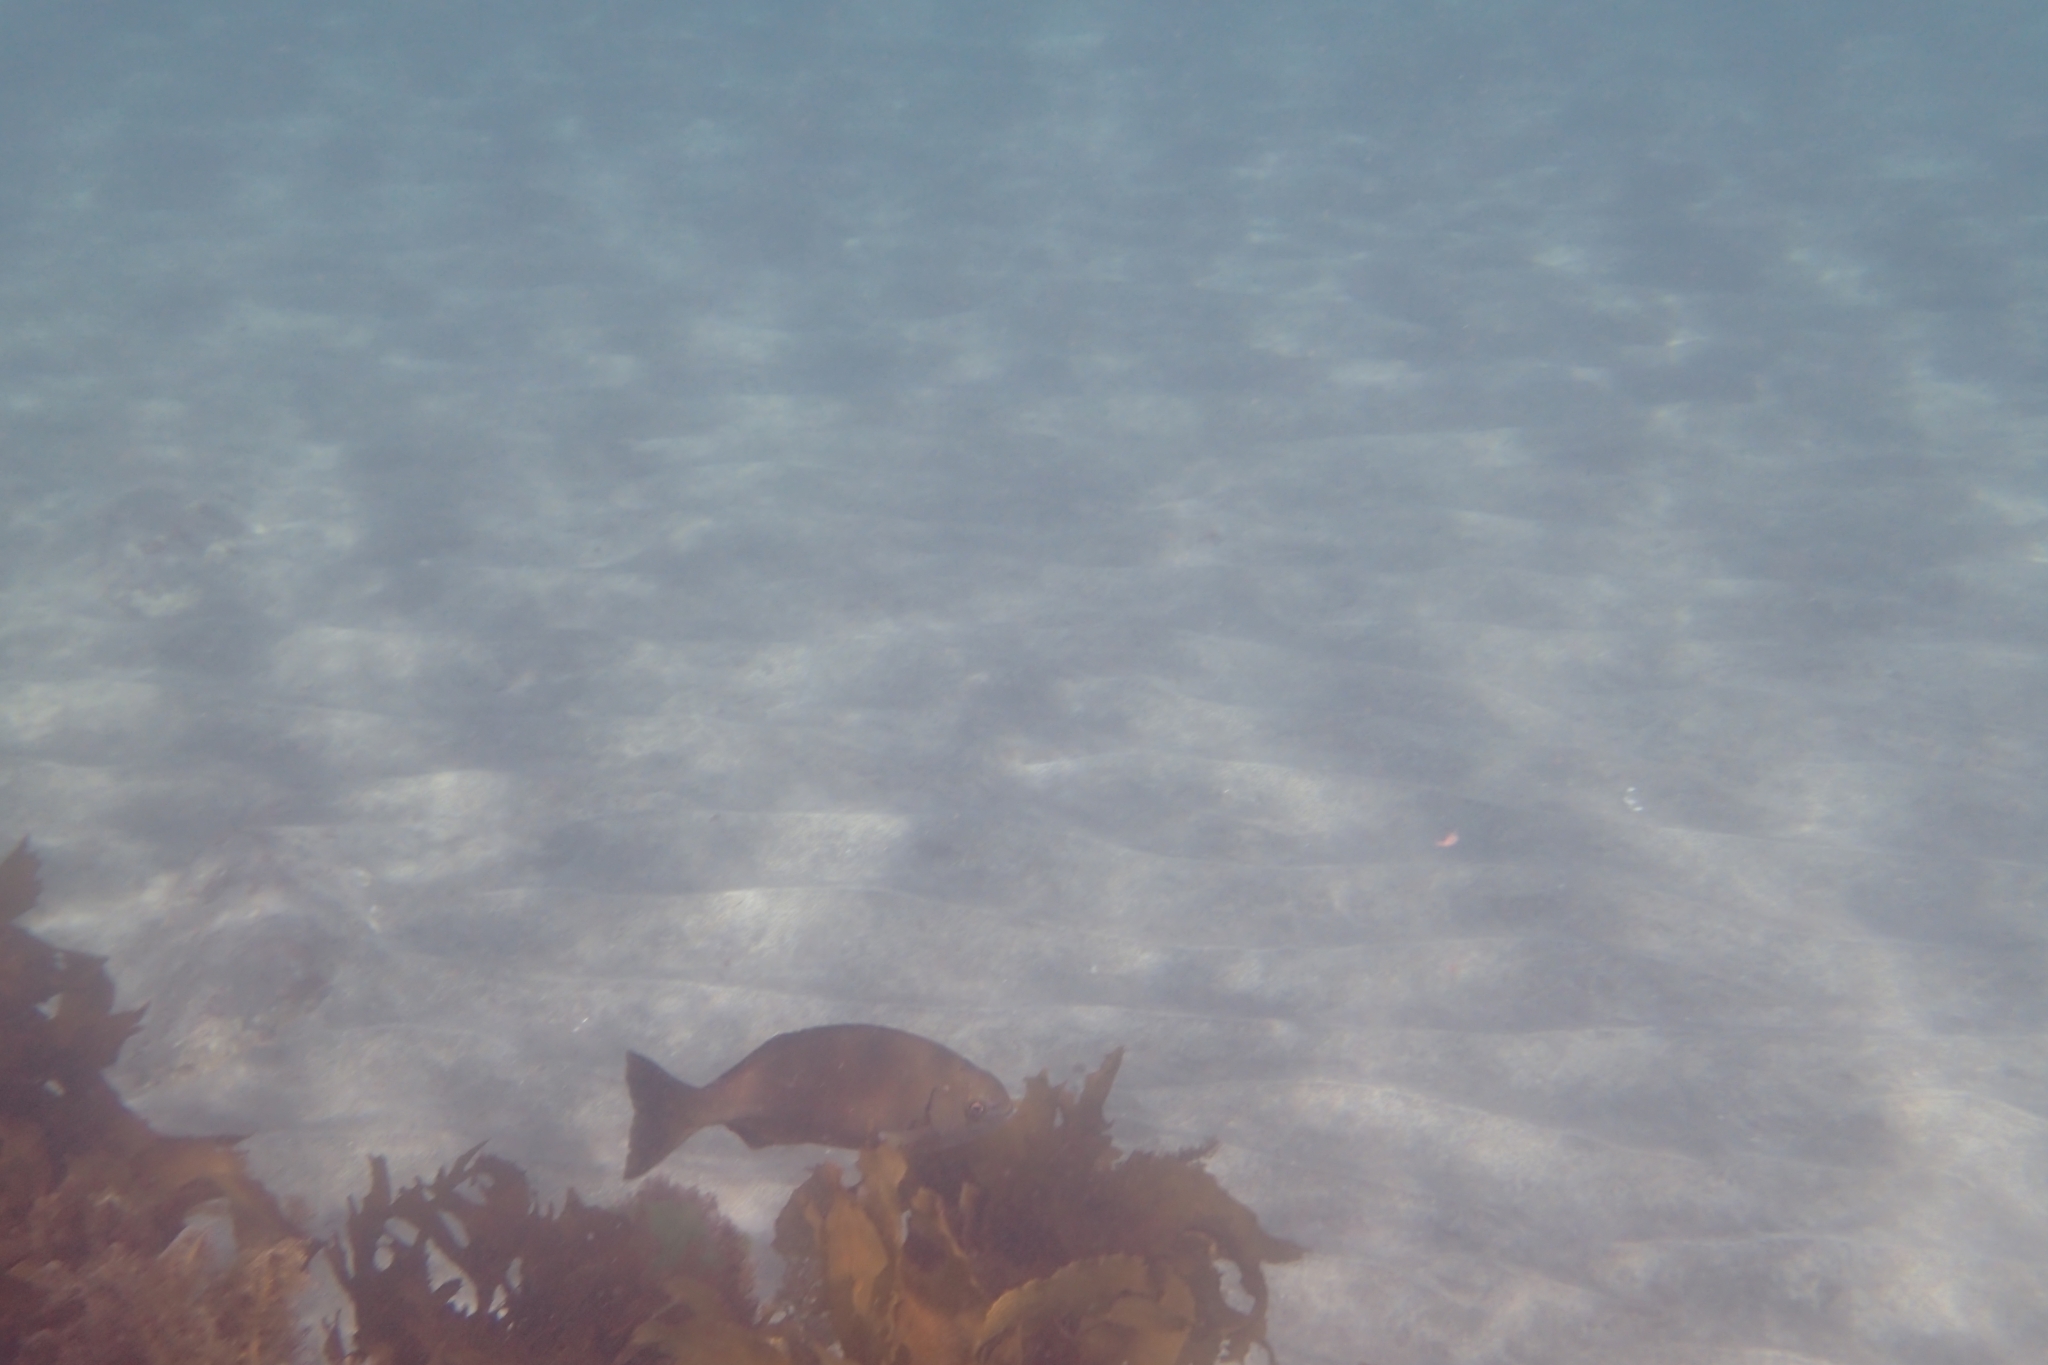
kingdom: Animalia
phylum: Chordata
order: Perciformes
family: Kyphosidae
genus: Kyphosus
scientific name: Kyphosus sydneyanus
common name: Silver drummer
